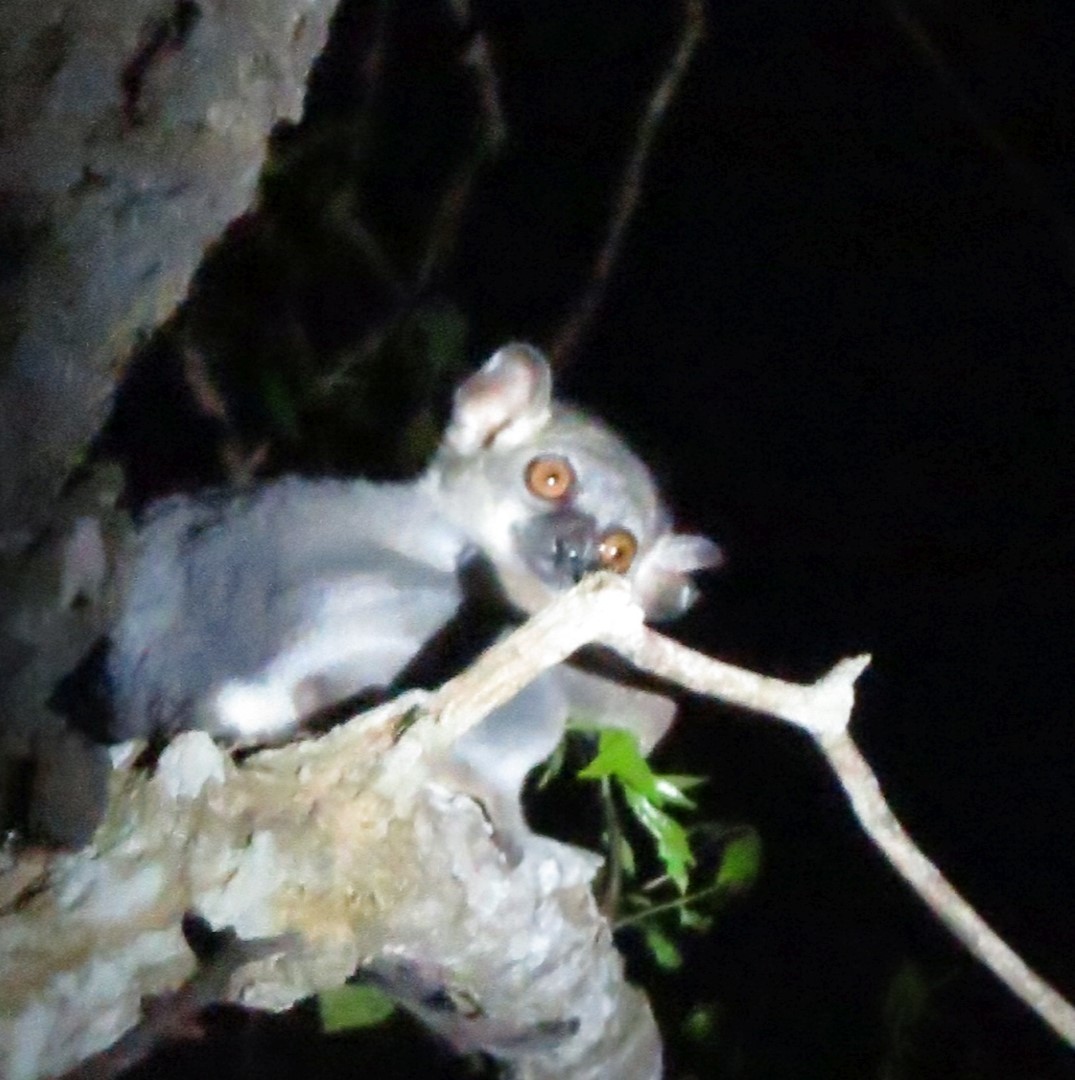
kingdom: Animalia
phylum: Chordata
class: Mammalia
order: Primates
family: Lepilemuridae
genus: Lepilemur
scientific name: Lepilemur ruficaudatus
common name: Red-tailed sportive lemur
